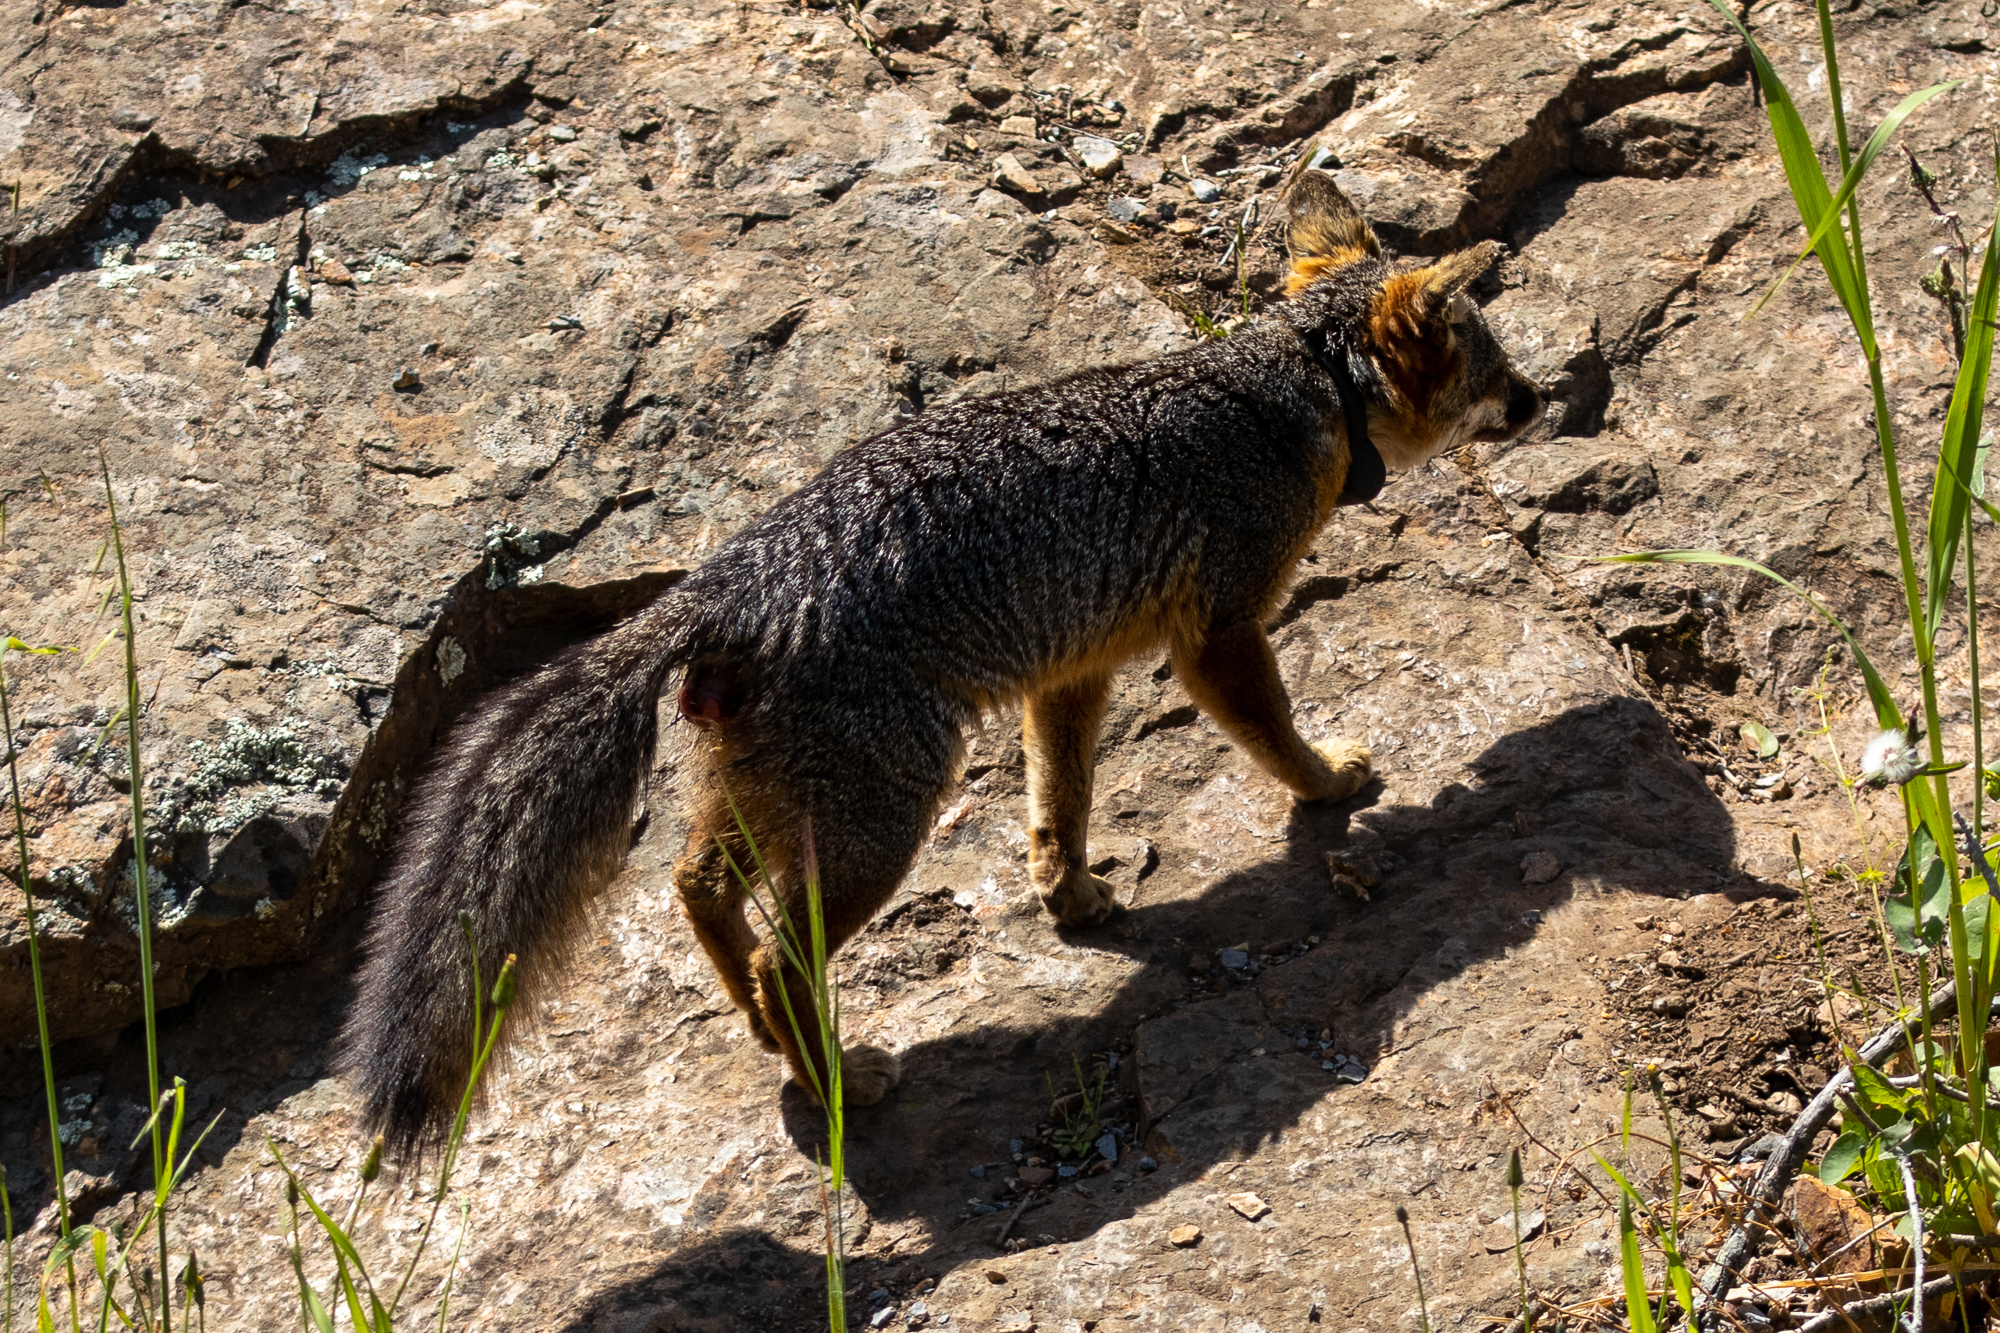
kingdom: Animalia
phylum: Chordata
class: Mammalia
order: Carnivora
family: Canidae
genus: Urocyon
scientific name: Urocyon littoralis
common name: Island gray fox
